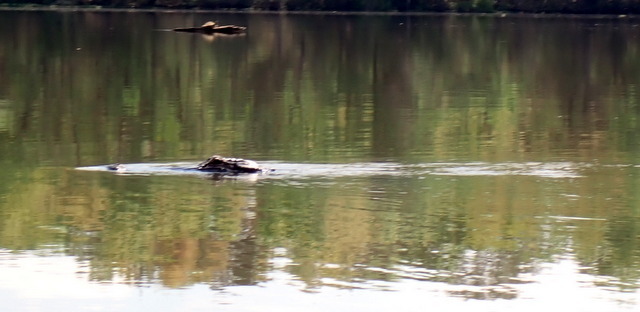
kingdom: Animalia
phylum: Chordata
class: Crocodylia
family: Alligatoridae
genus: Alligator
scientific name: Alligator mississippiensis
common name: American alligator
